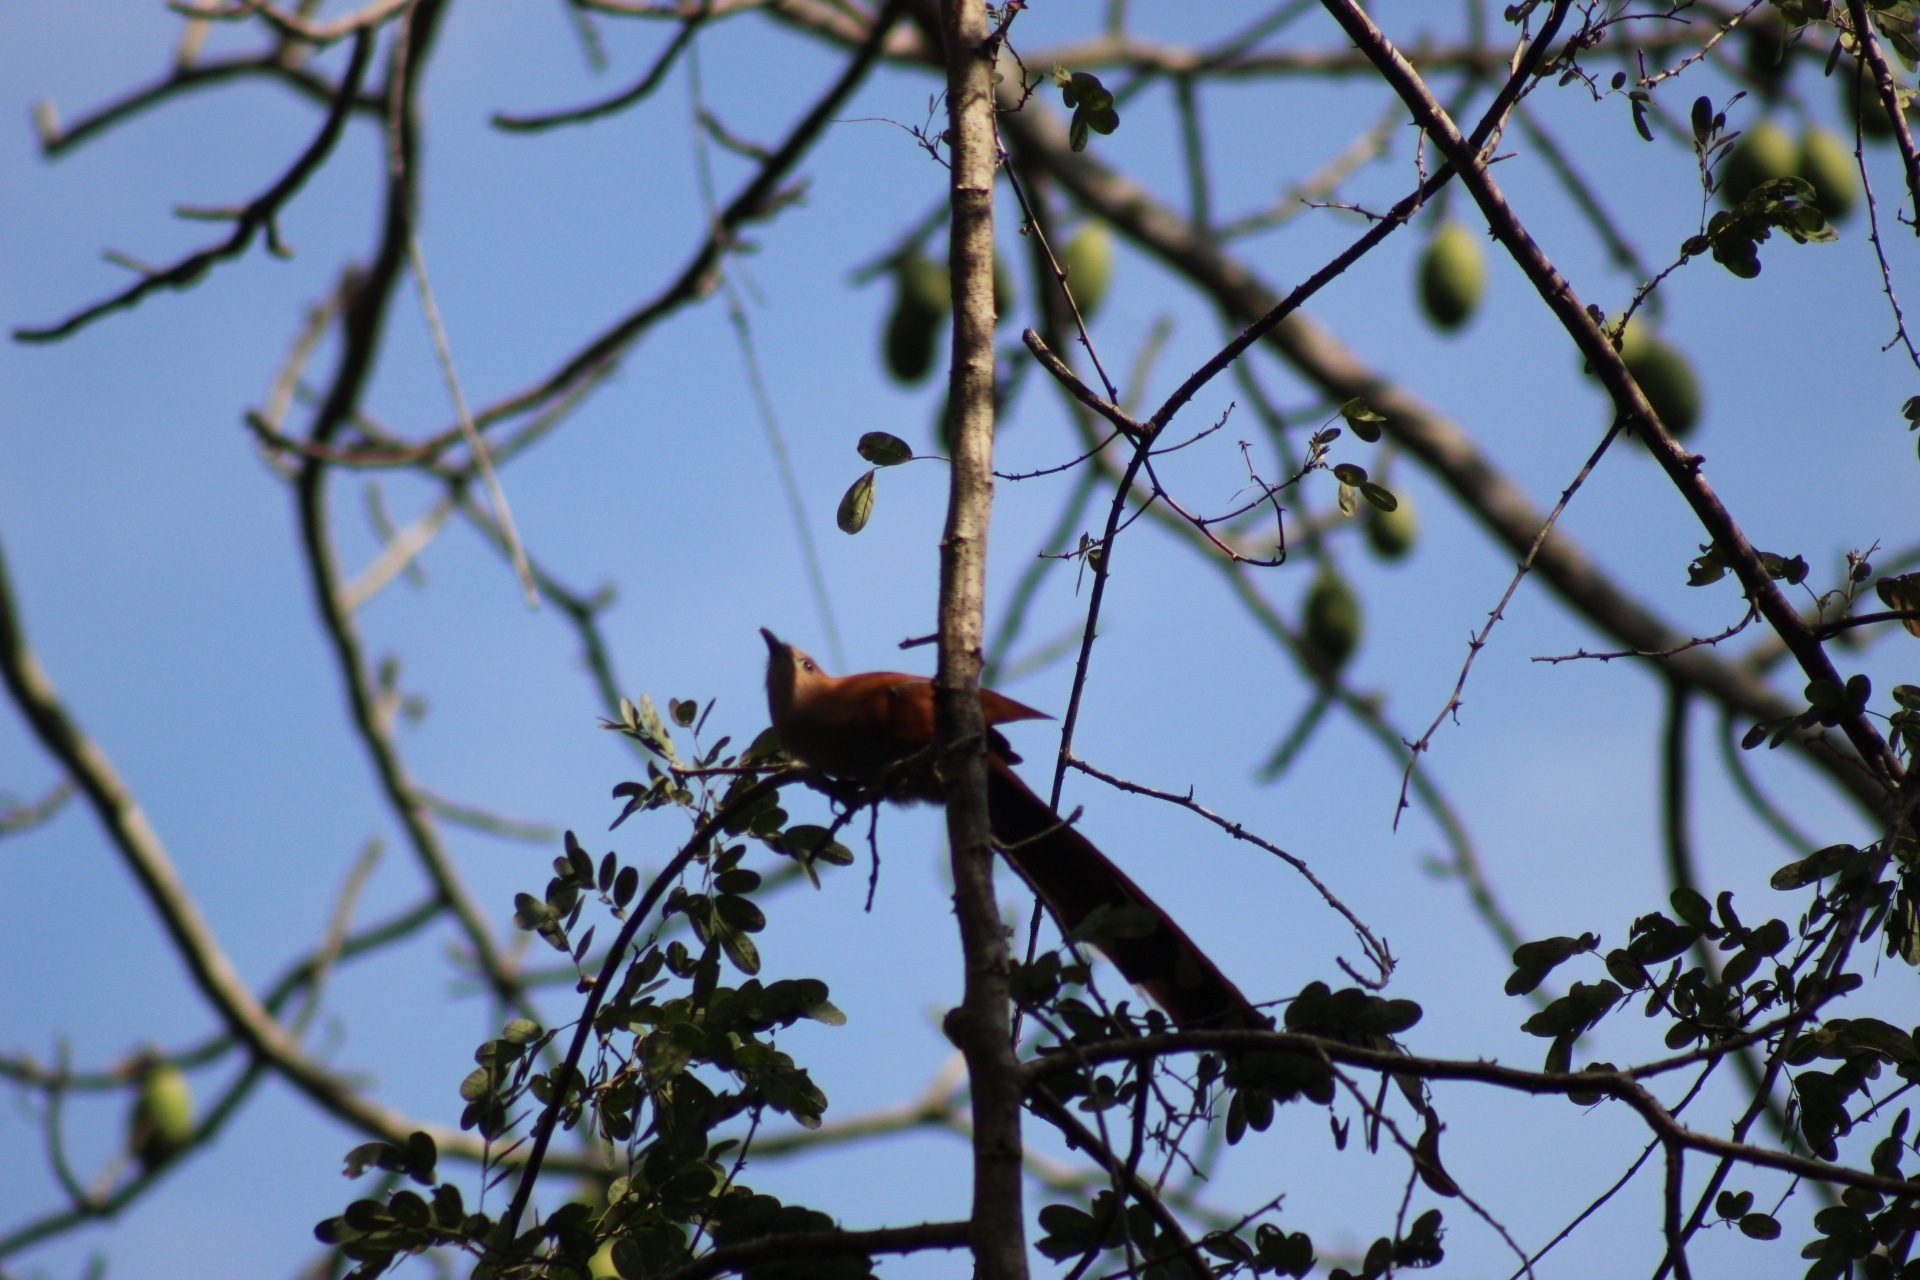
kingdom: Animalia
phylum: Chordata
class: Aves
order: Cuculiformes
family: Cuculidae
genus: Piaya
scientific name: Piaya cayana
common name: Squirrel cuckoo
